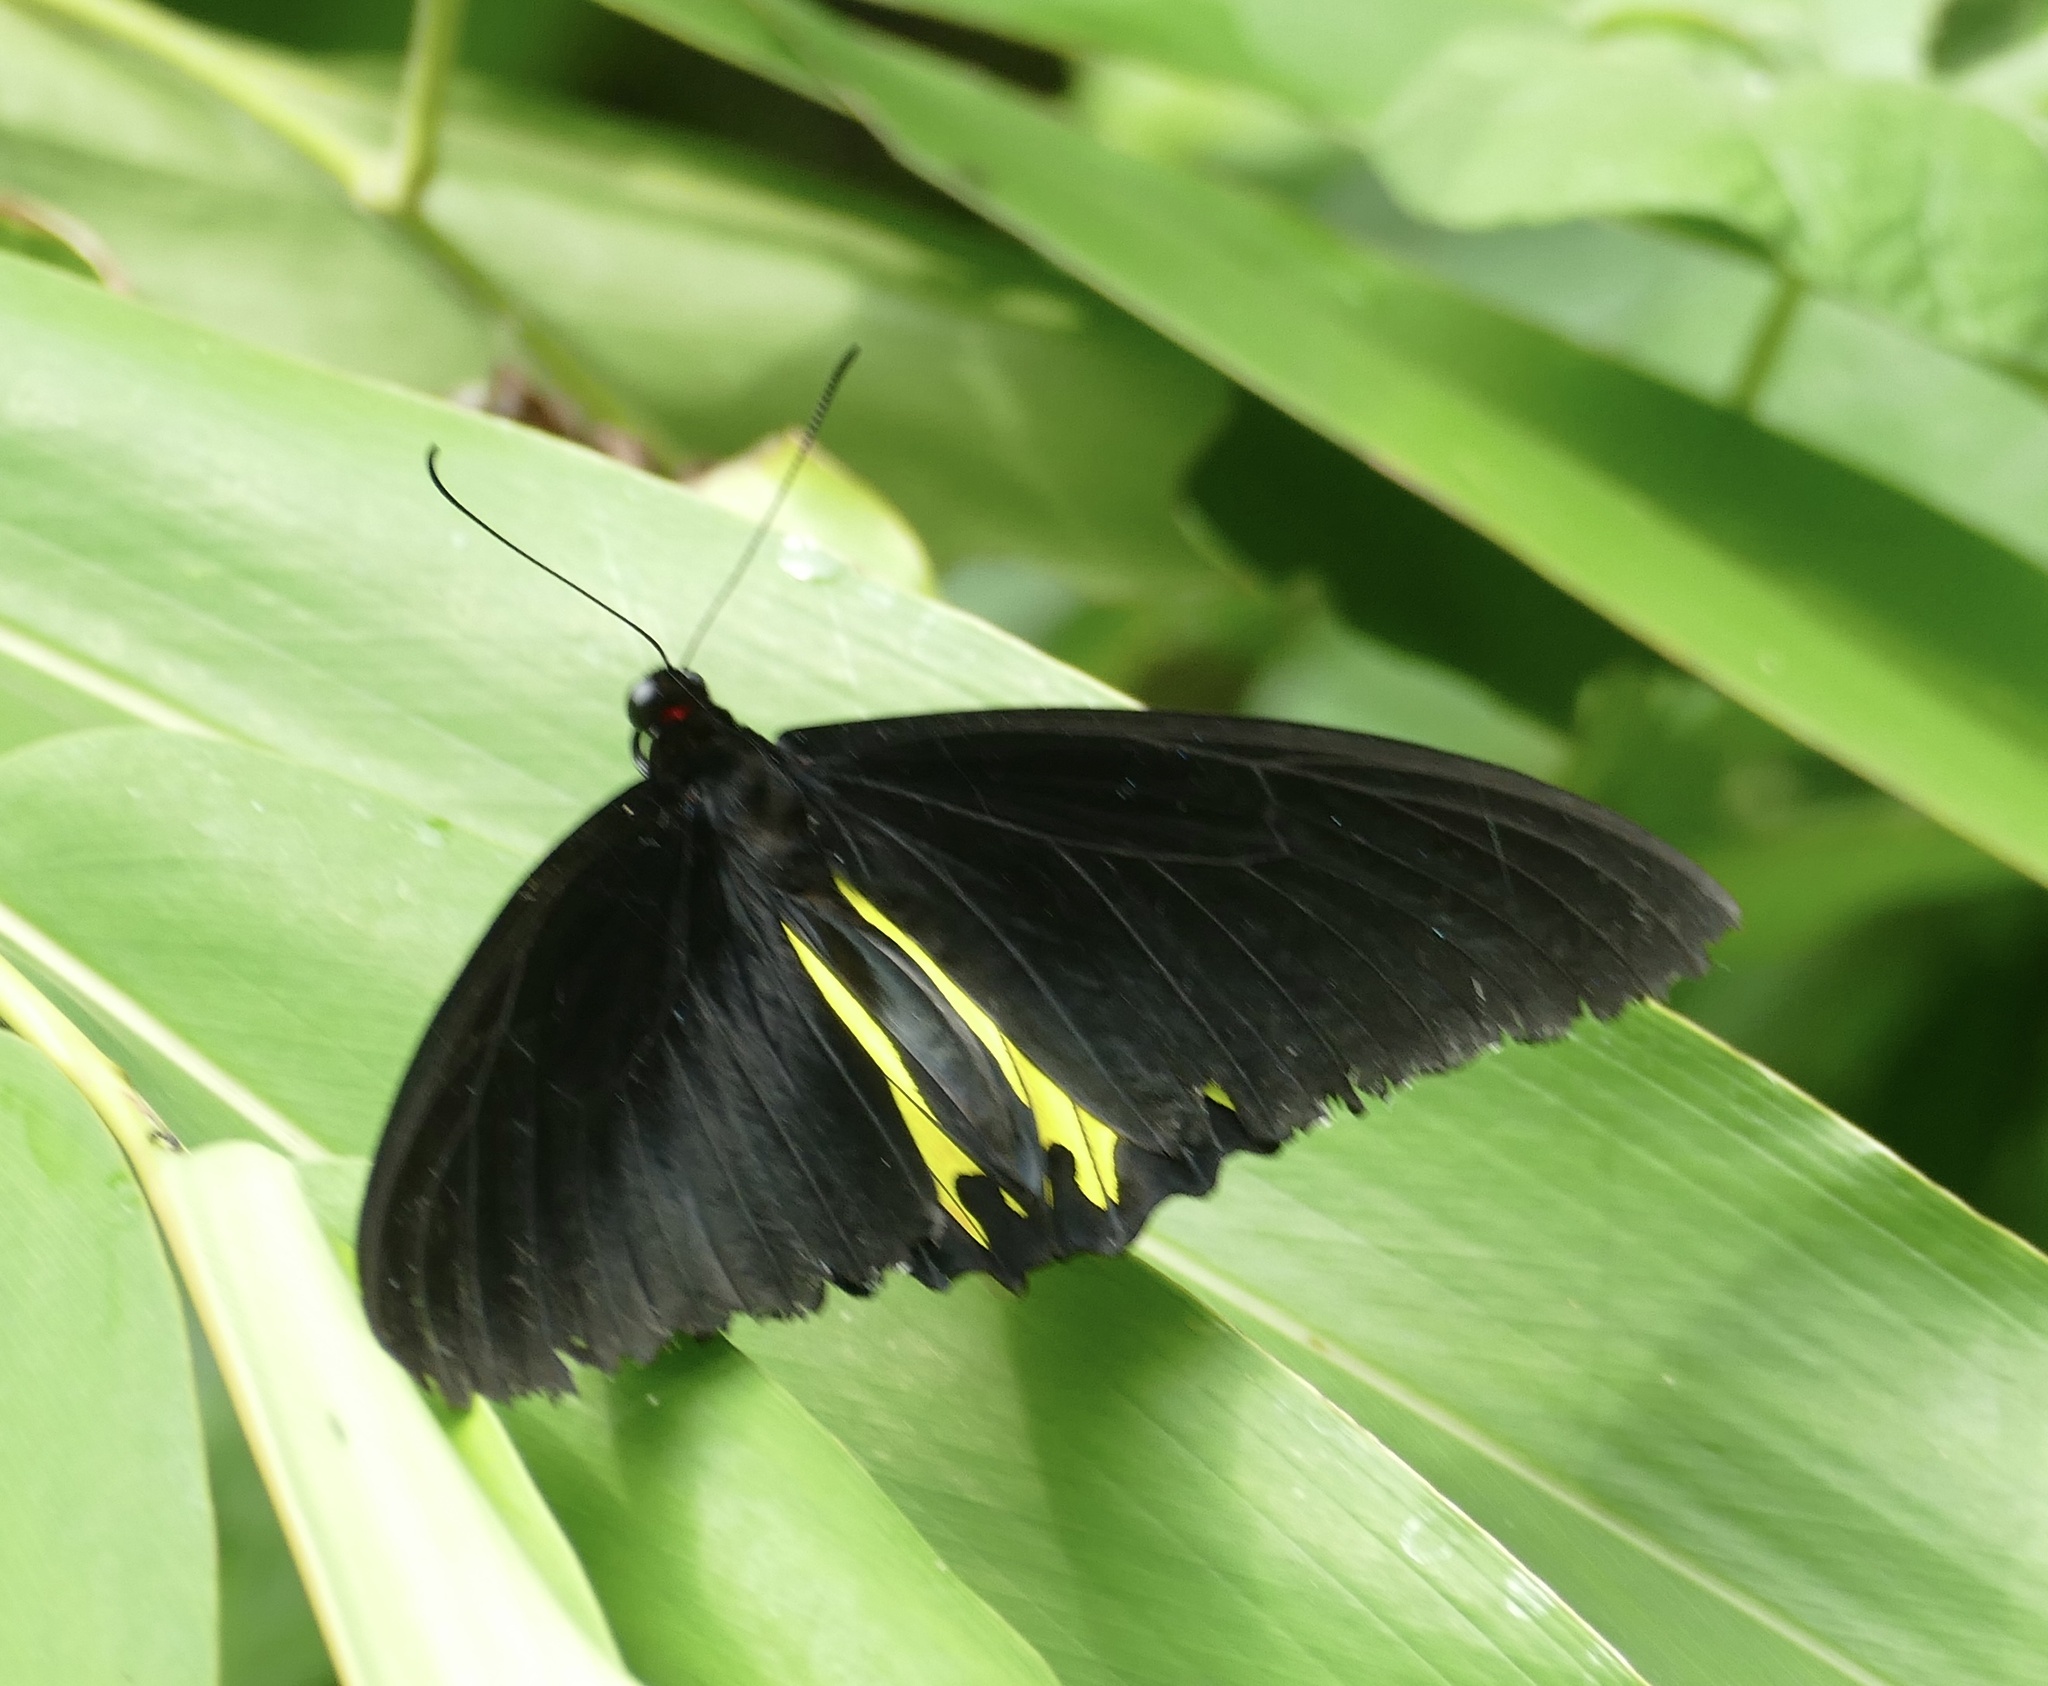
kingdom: Animalia
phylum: Arthropoda
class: Insecta
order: Lepidoptera
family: Papilionidae
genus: Troides
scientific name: Troides helena
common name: Common birdwing
